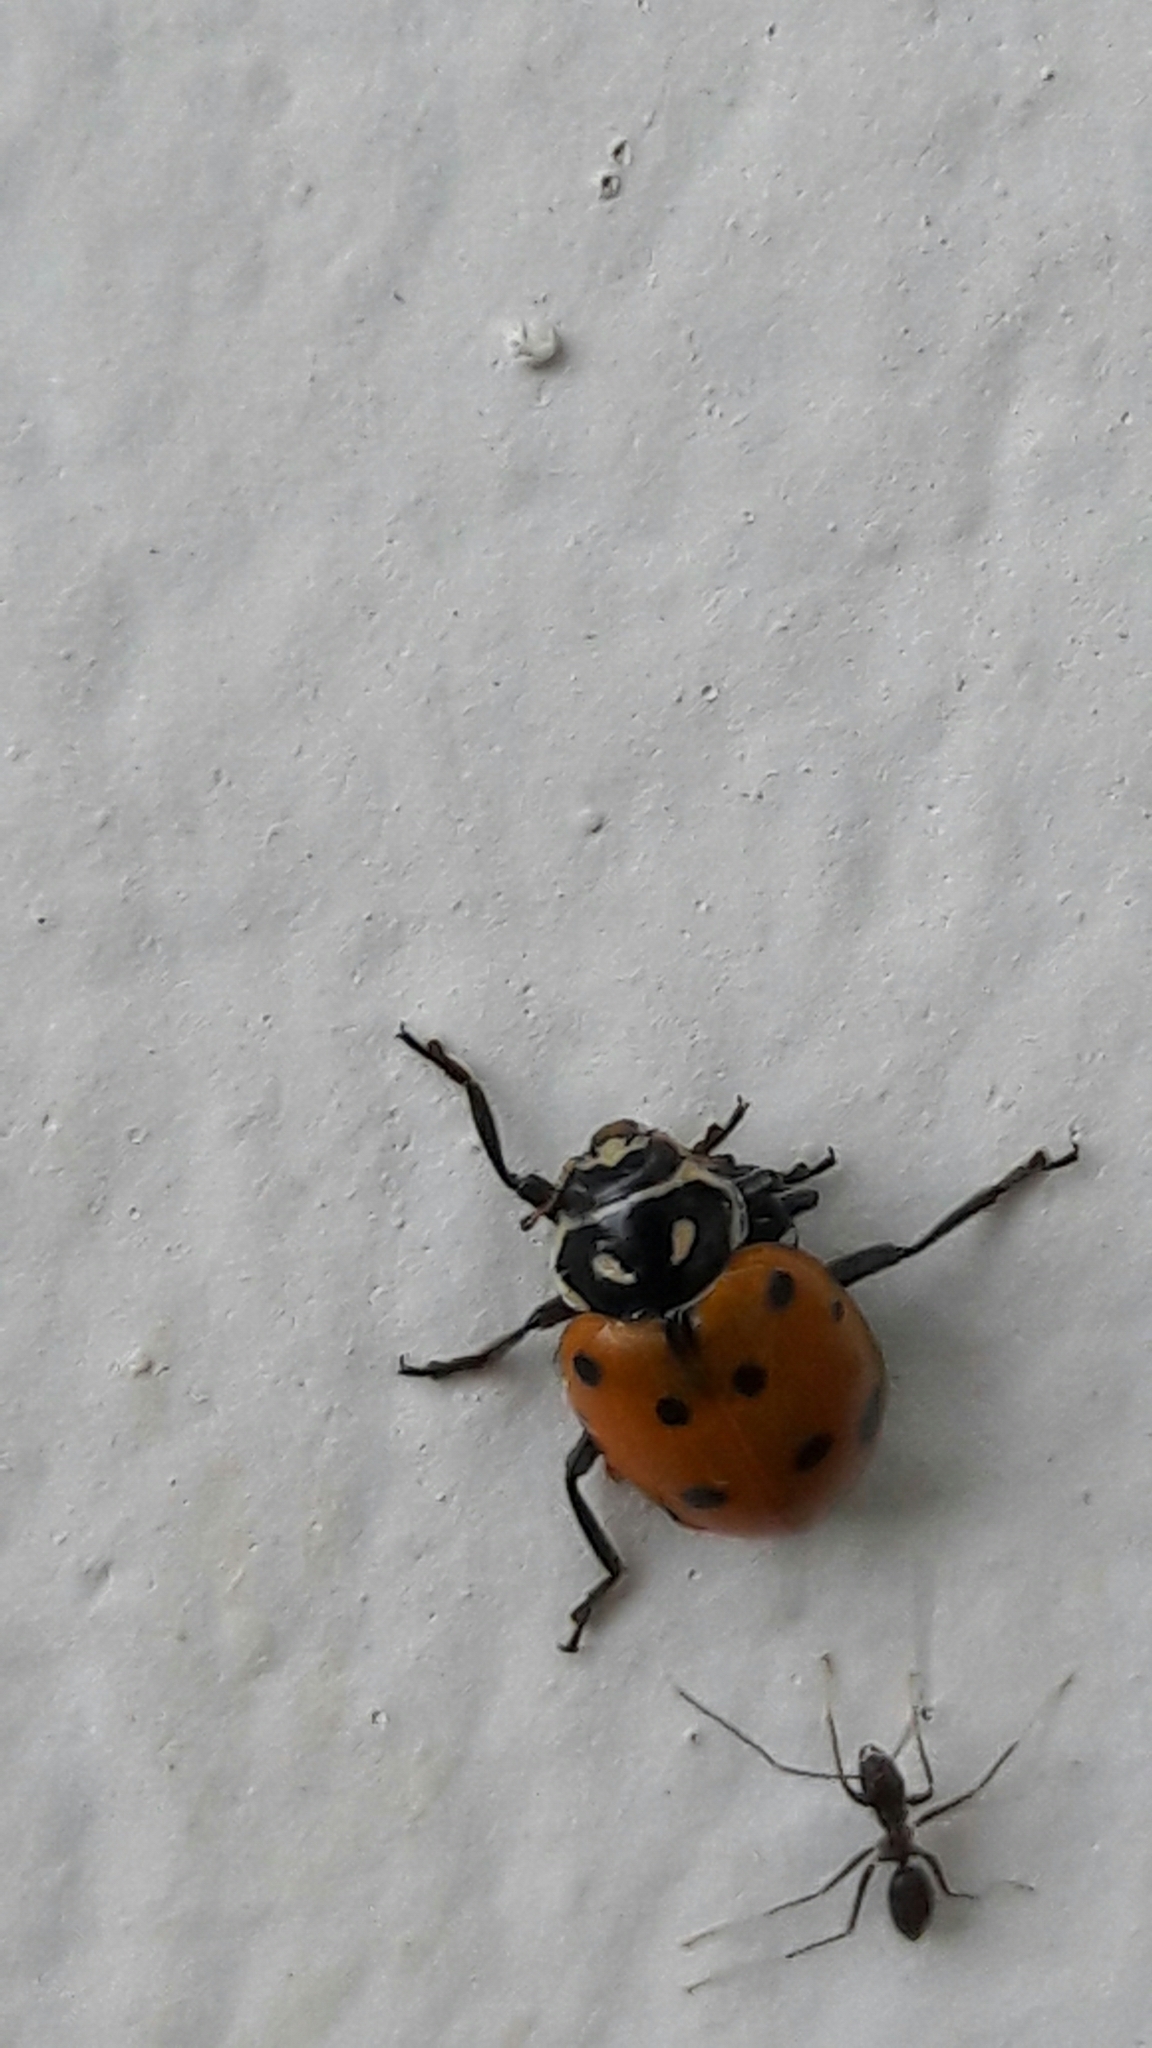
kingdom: Animalia
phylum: Arthropoda
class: Insecta
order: Coleoptera
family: Coccinellidae
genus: Hippodamia
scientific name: Hippodamia convergens
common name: Convergent lady beetle
